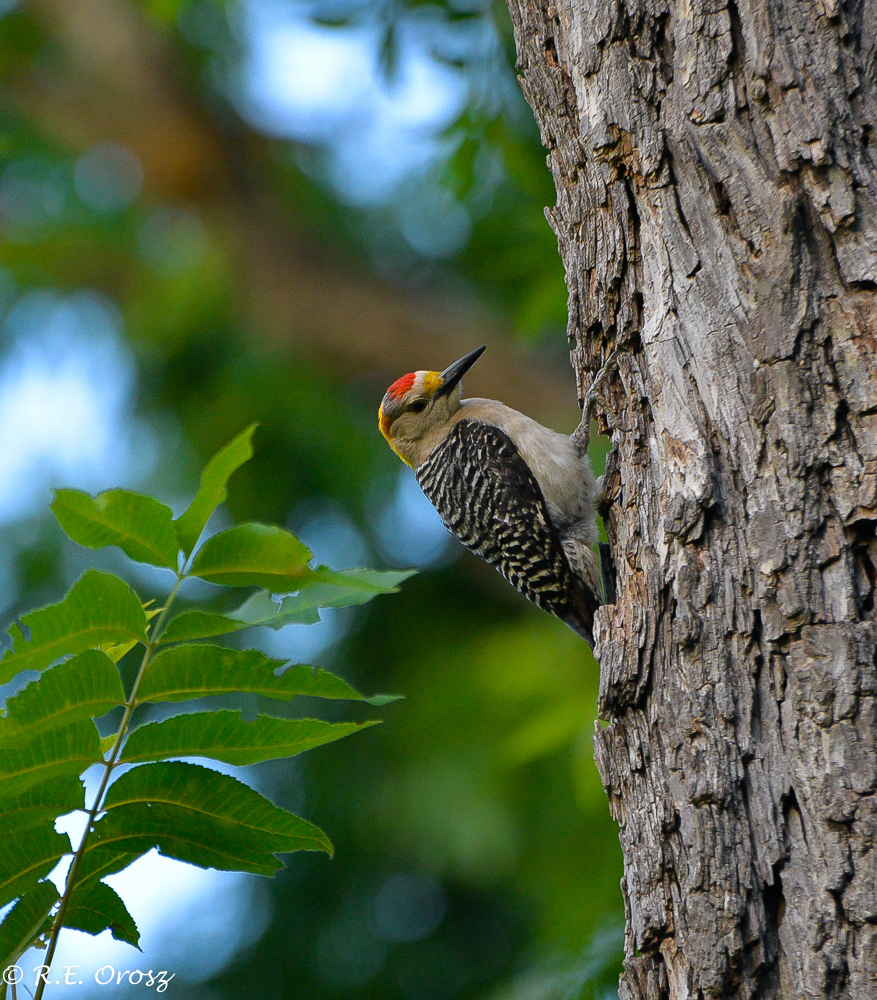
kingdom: Animalia
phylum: Chordata
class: Aves
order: Piciformes
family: Picidae
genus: Melanerpes
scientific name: Melanerpes aurifrons
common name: Golden-fronted woodpecker
